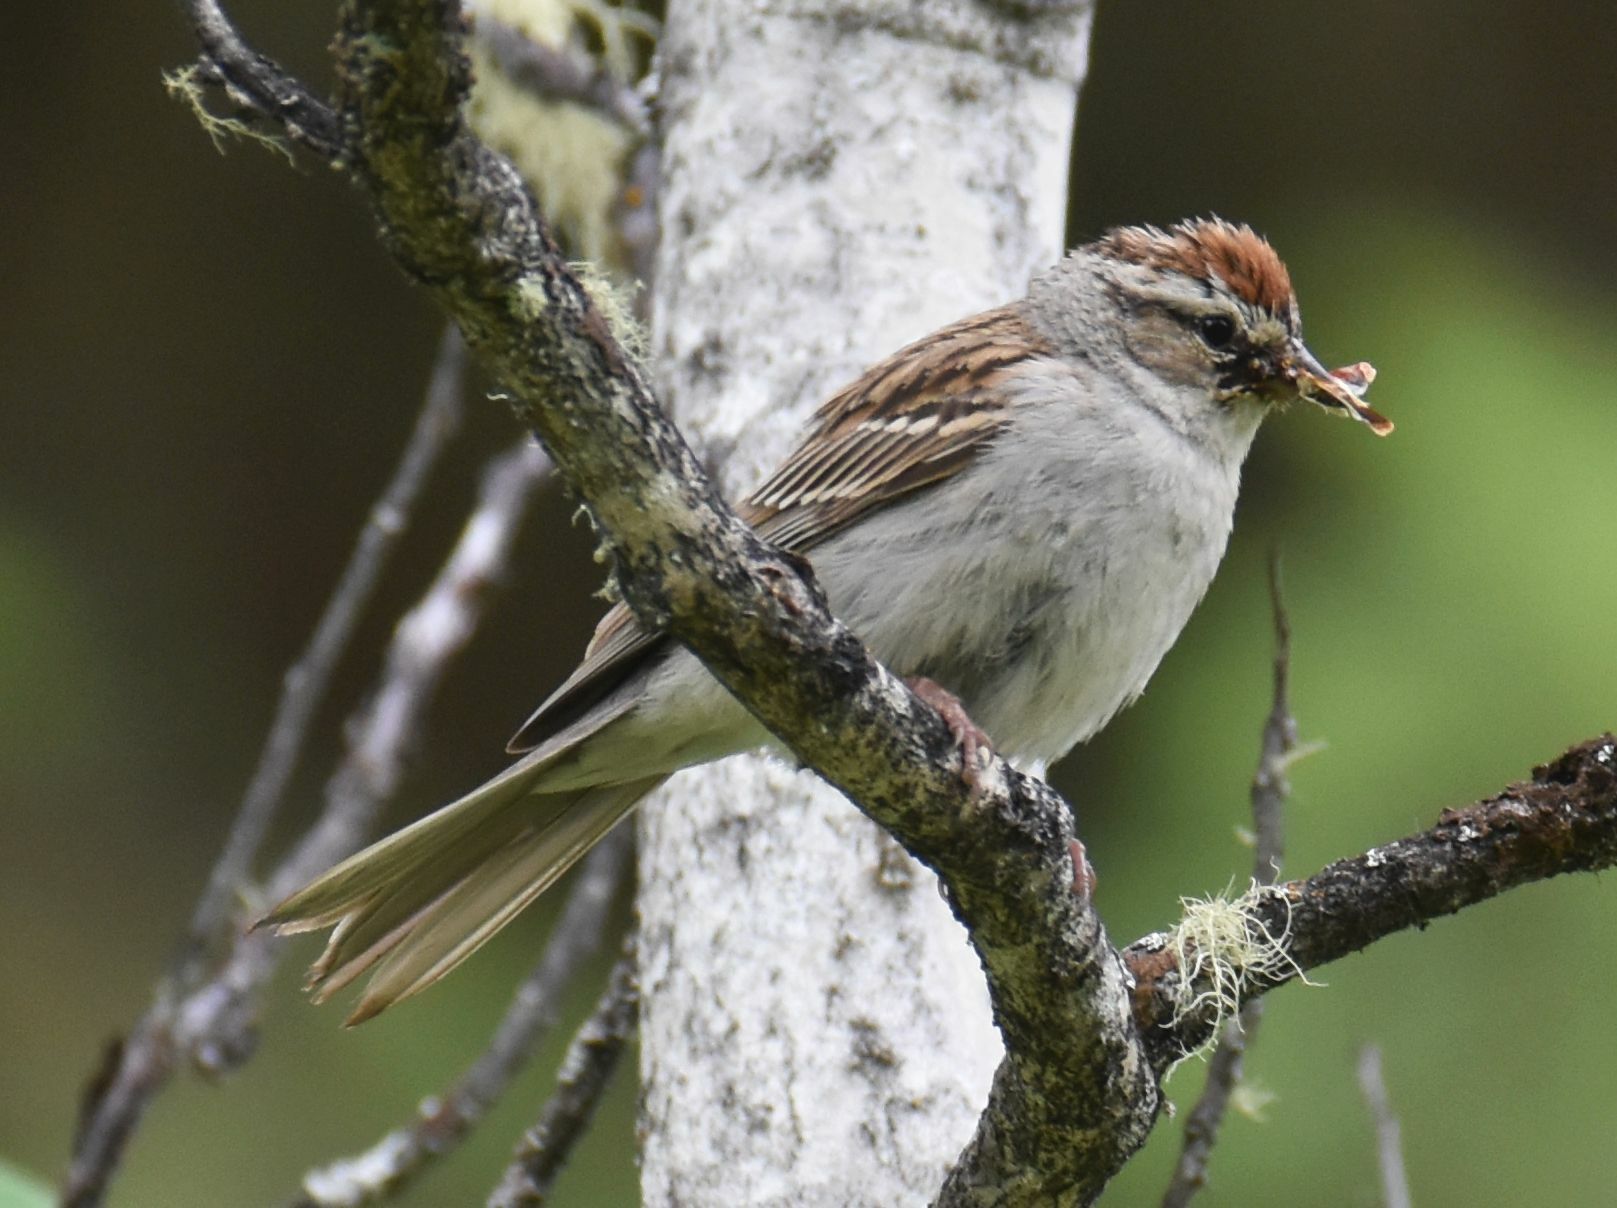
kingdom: Animalia
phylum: Chordata
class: Aves
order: Passeriformes
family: Passerellidae
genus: Spizella
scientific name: Spizella passerina
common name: Chipping sparrow
